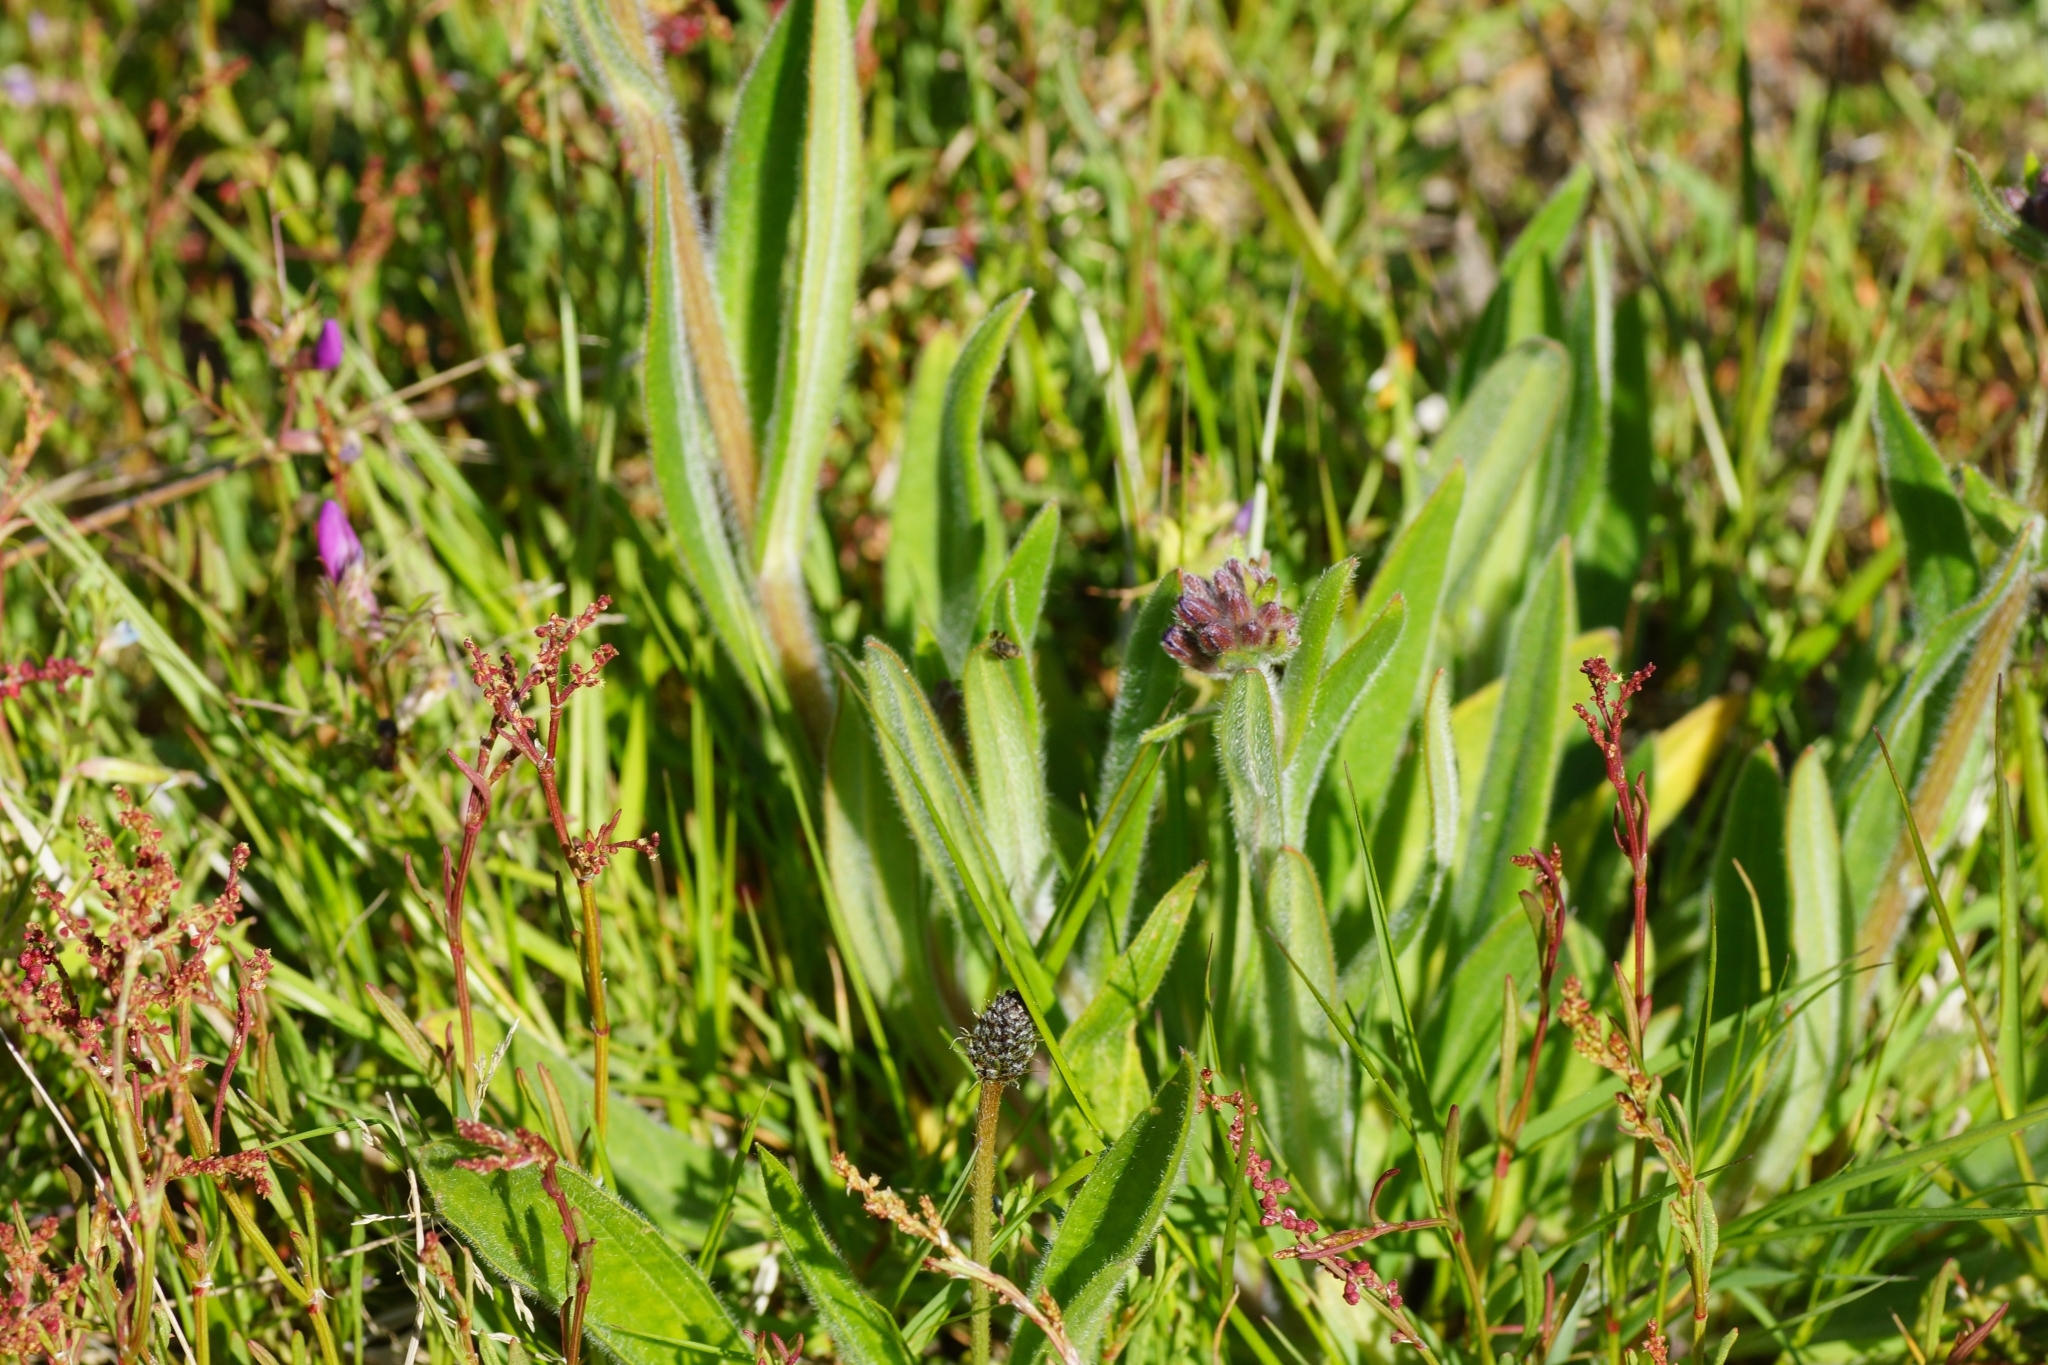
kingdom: Plantae
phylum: Tracheophyta
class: Magnoliopsida
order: Boraginales
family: Boraginaceae
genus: Anchusa
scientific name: Anchusa officinalis
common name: Alkanet
